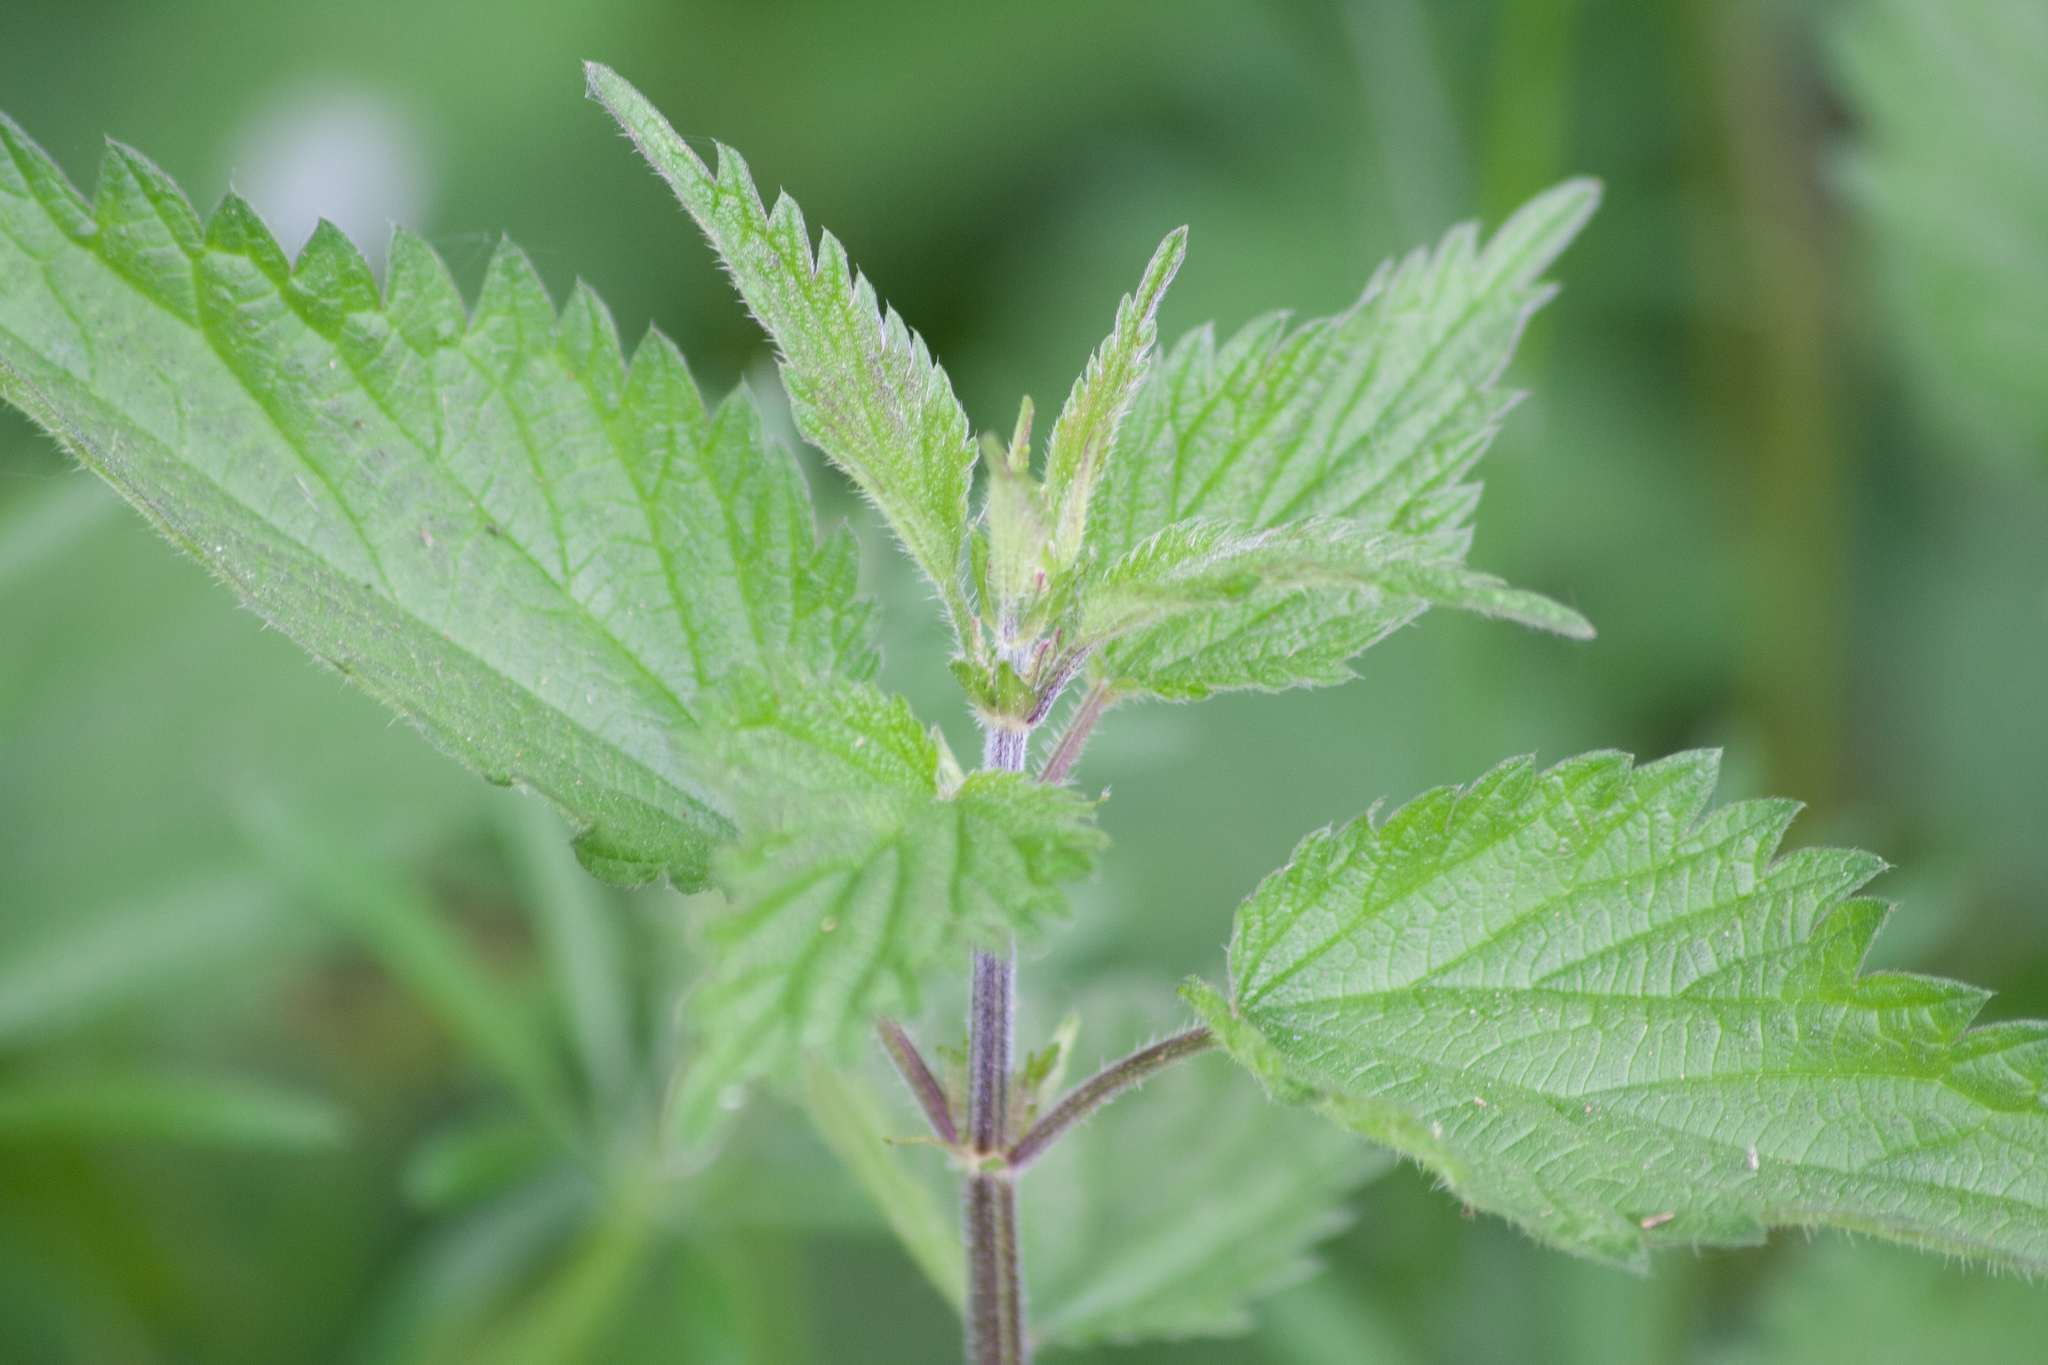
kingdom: Plantae
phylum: Tracheophyta
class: Magnoliopsida
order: Rosales
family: Urticaceae
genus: Urtica
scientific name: Urtica dioica
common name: Common nettle
